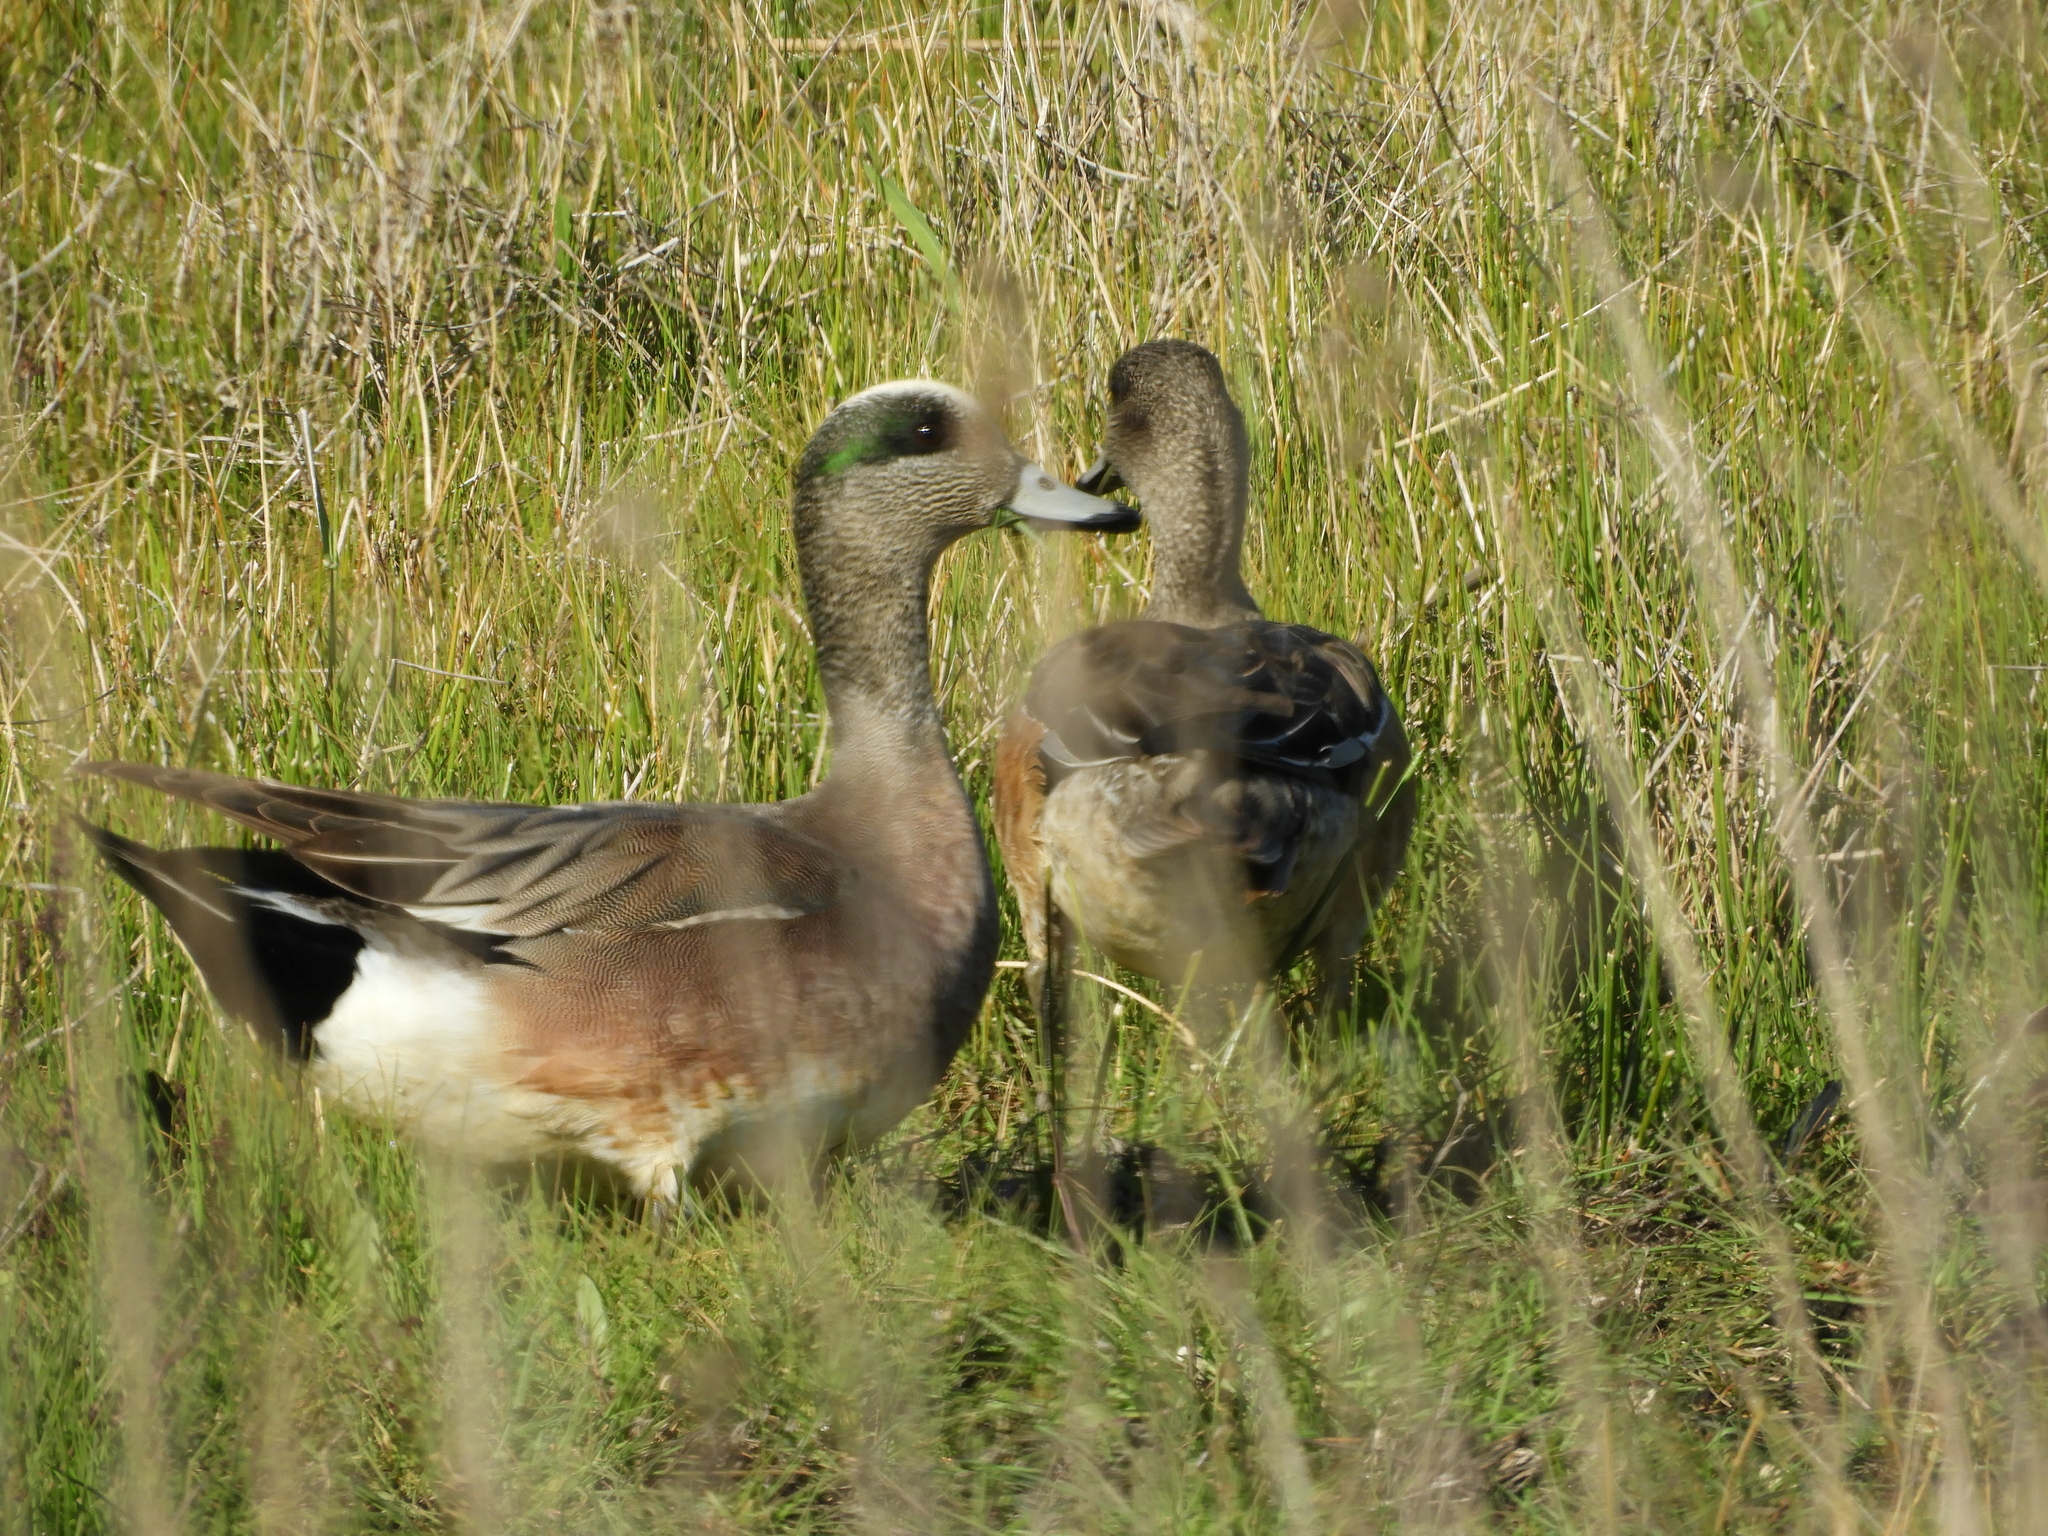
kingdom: Animalia
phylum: Chordata
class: Aves
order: Anseriformes
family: Anatidae
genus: Mareca
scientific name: Mareca americana
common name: American wigeon
